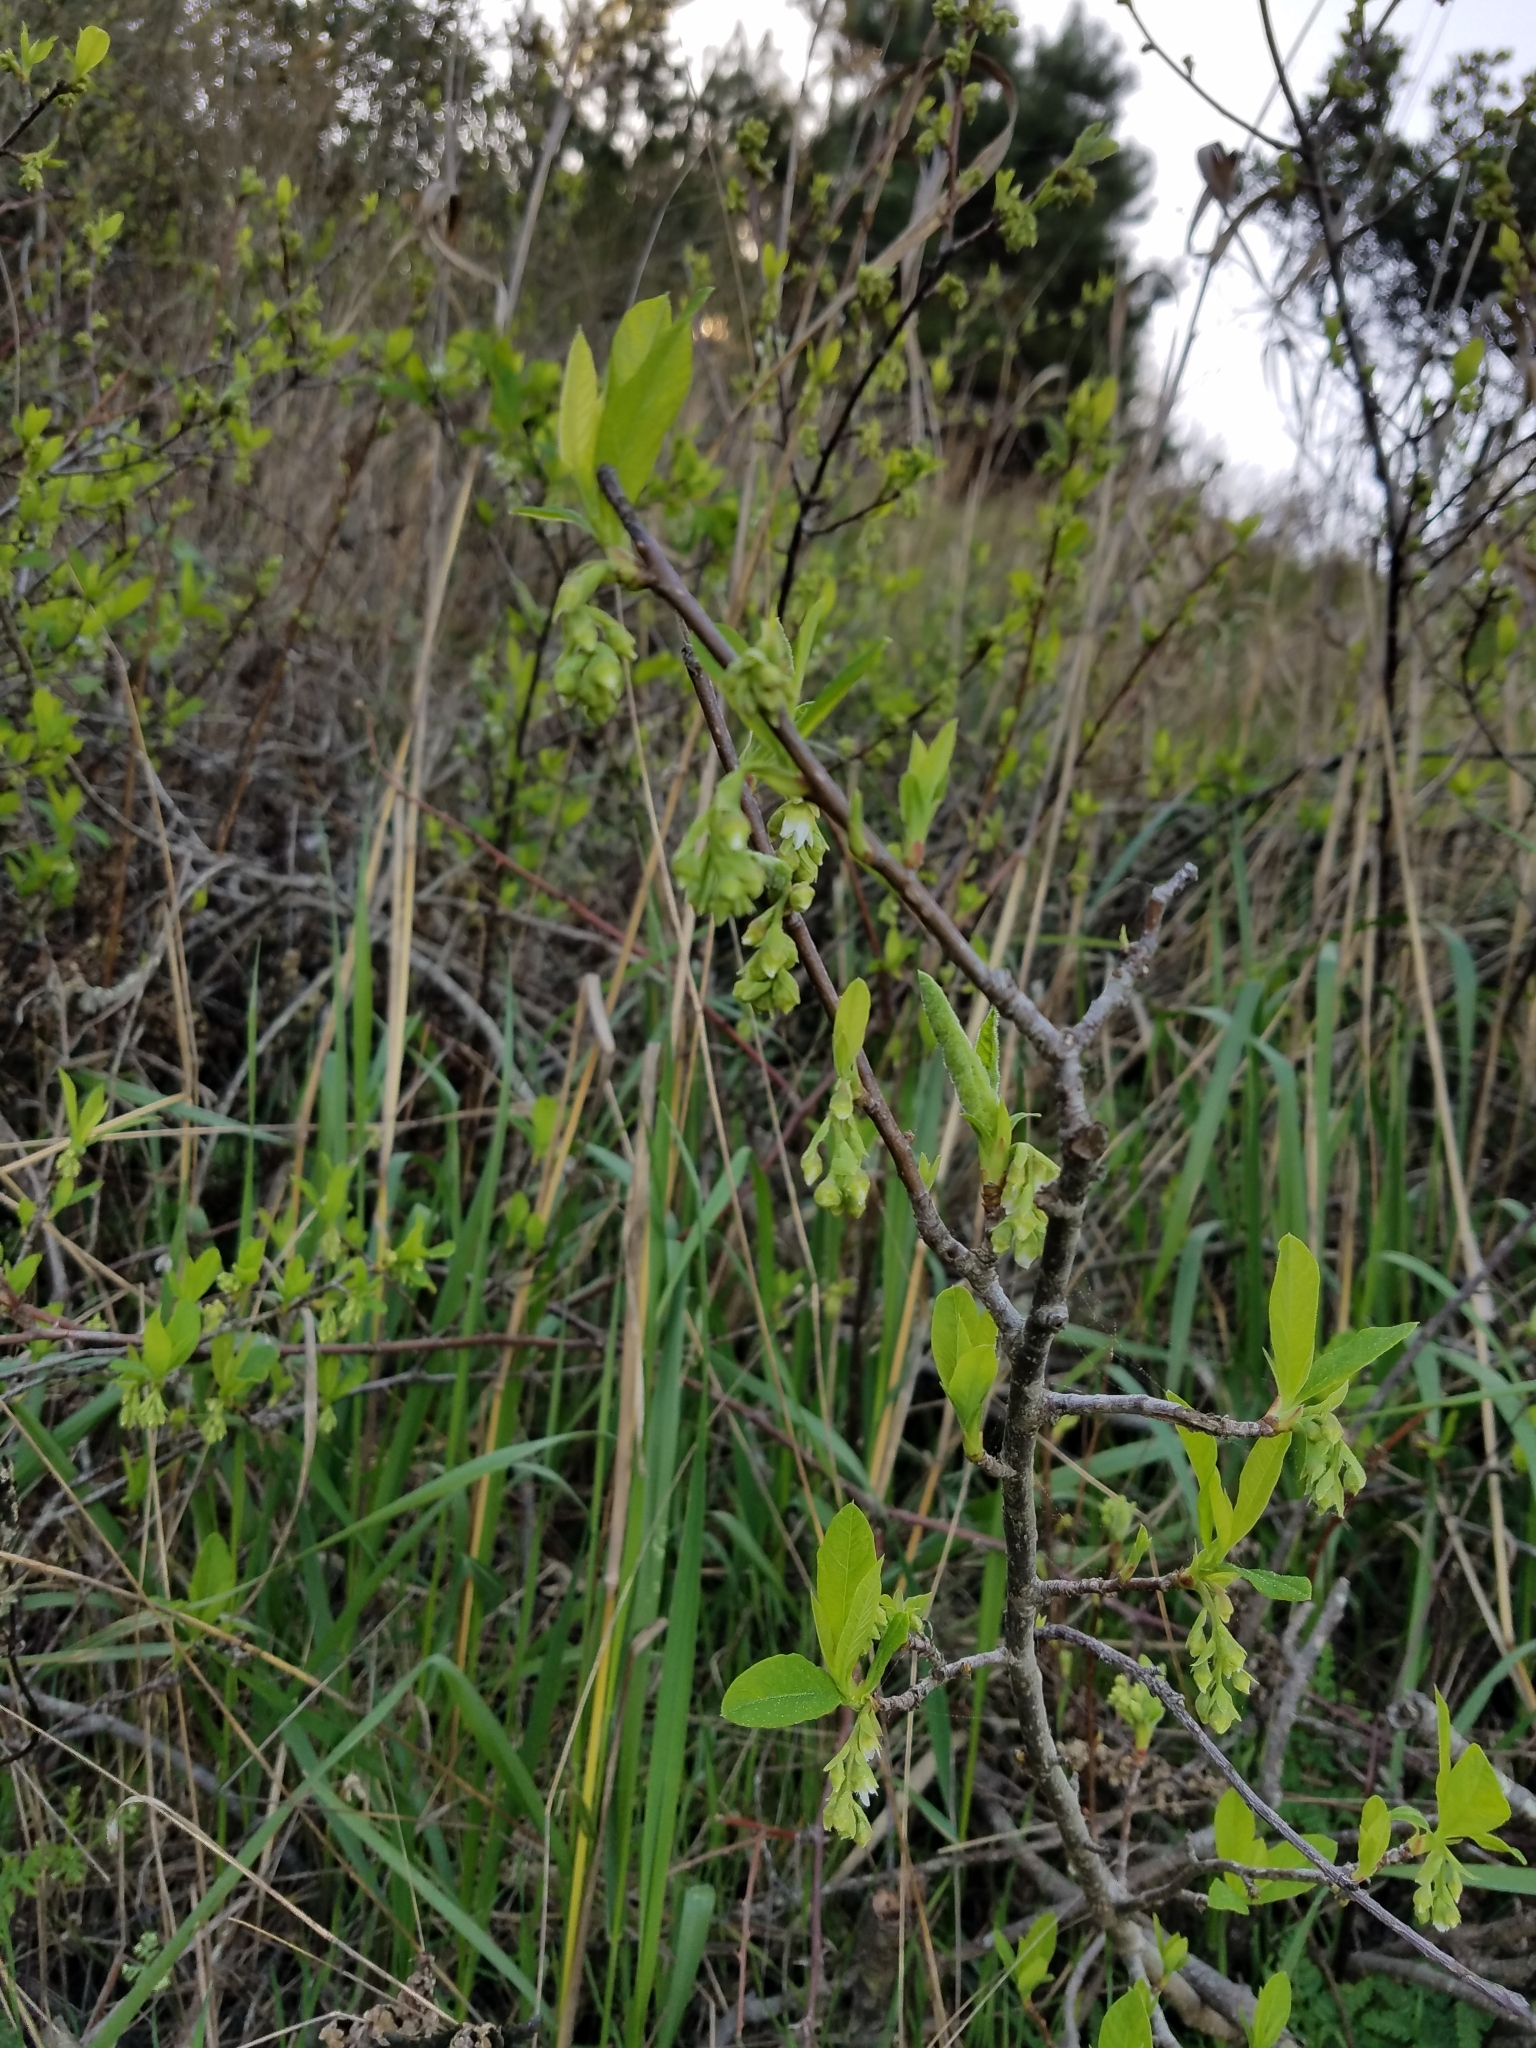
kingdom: Plantae
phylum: Tracheophyta
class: Magnoliopsida
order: Rosales
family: Rosaceae
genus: Oemleria
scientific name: Oemleria cerasiformis
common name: Osoberry
